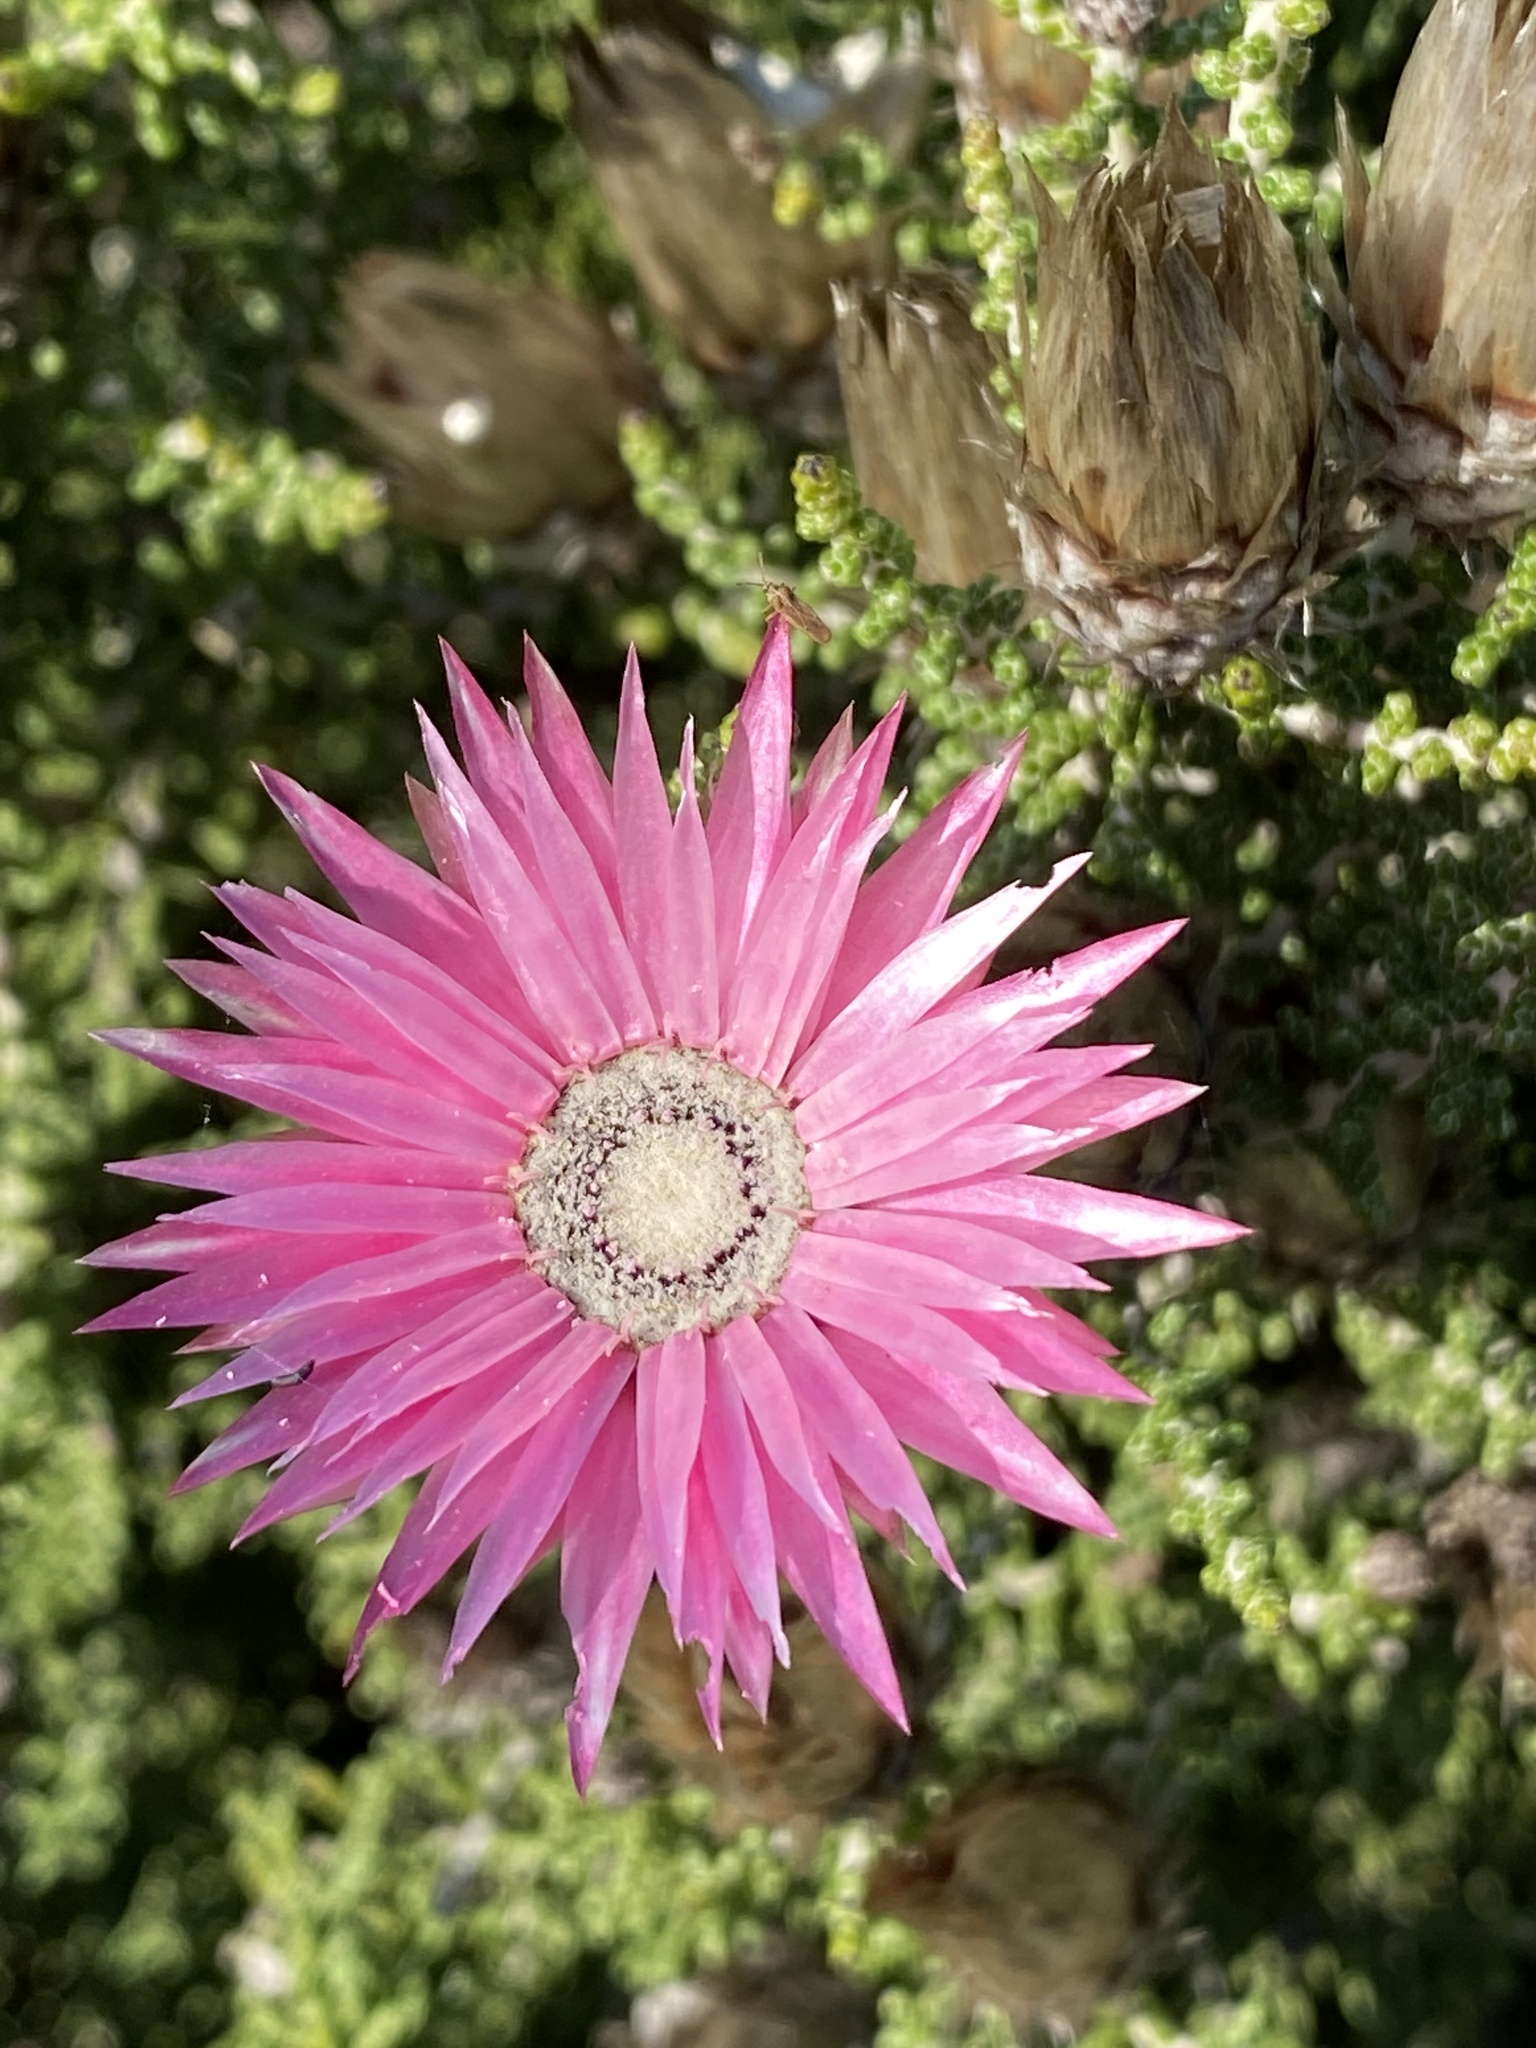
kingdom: Plantae
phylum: Tracheophyta
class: Magnoliopsida
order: Asterales
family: Asteraceae
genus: Phaenocoma
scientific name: Phaenocoma prolifera
